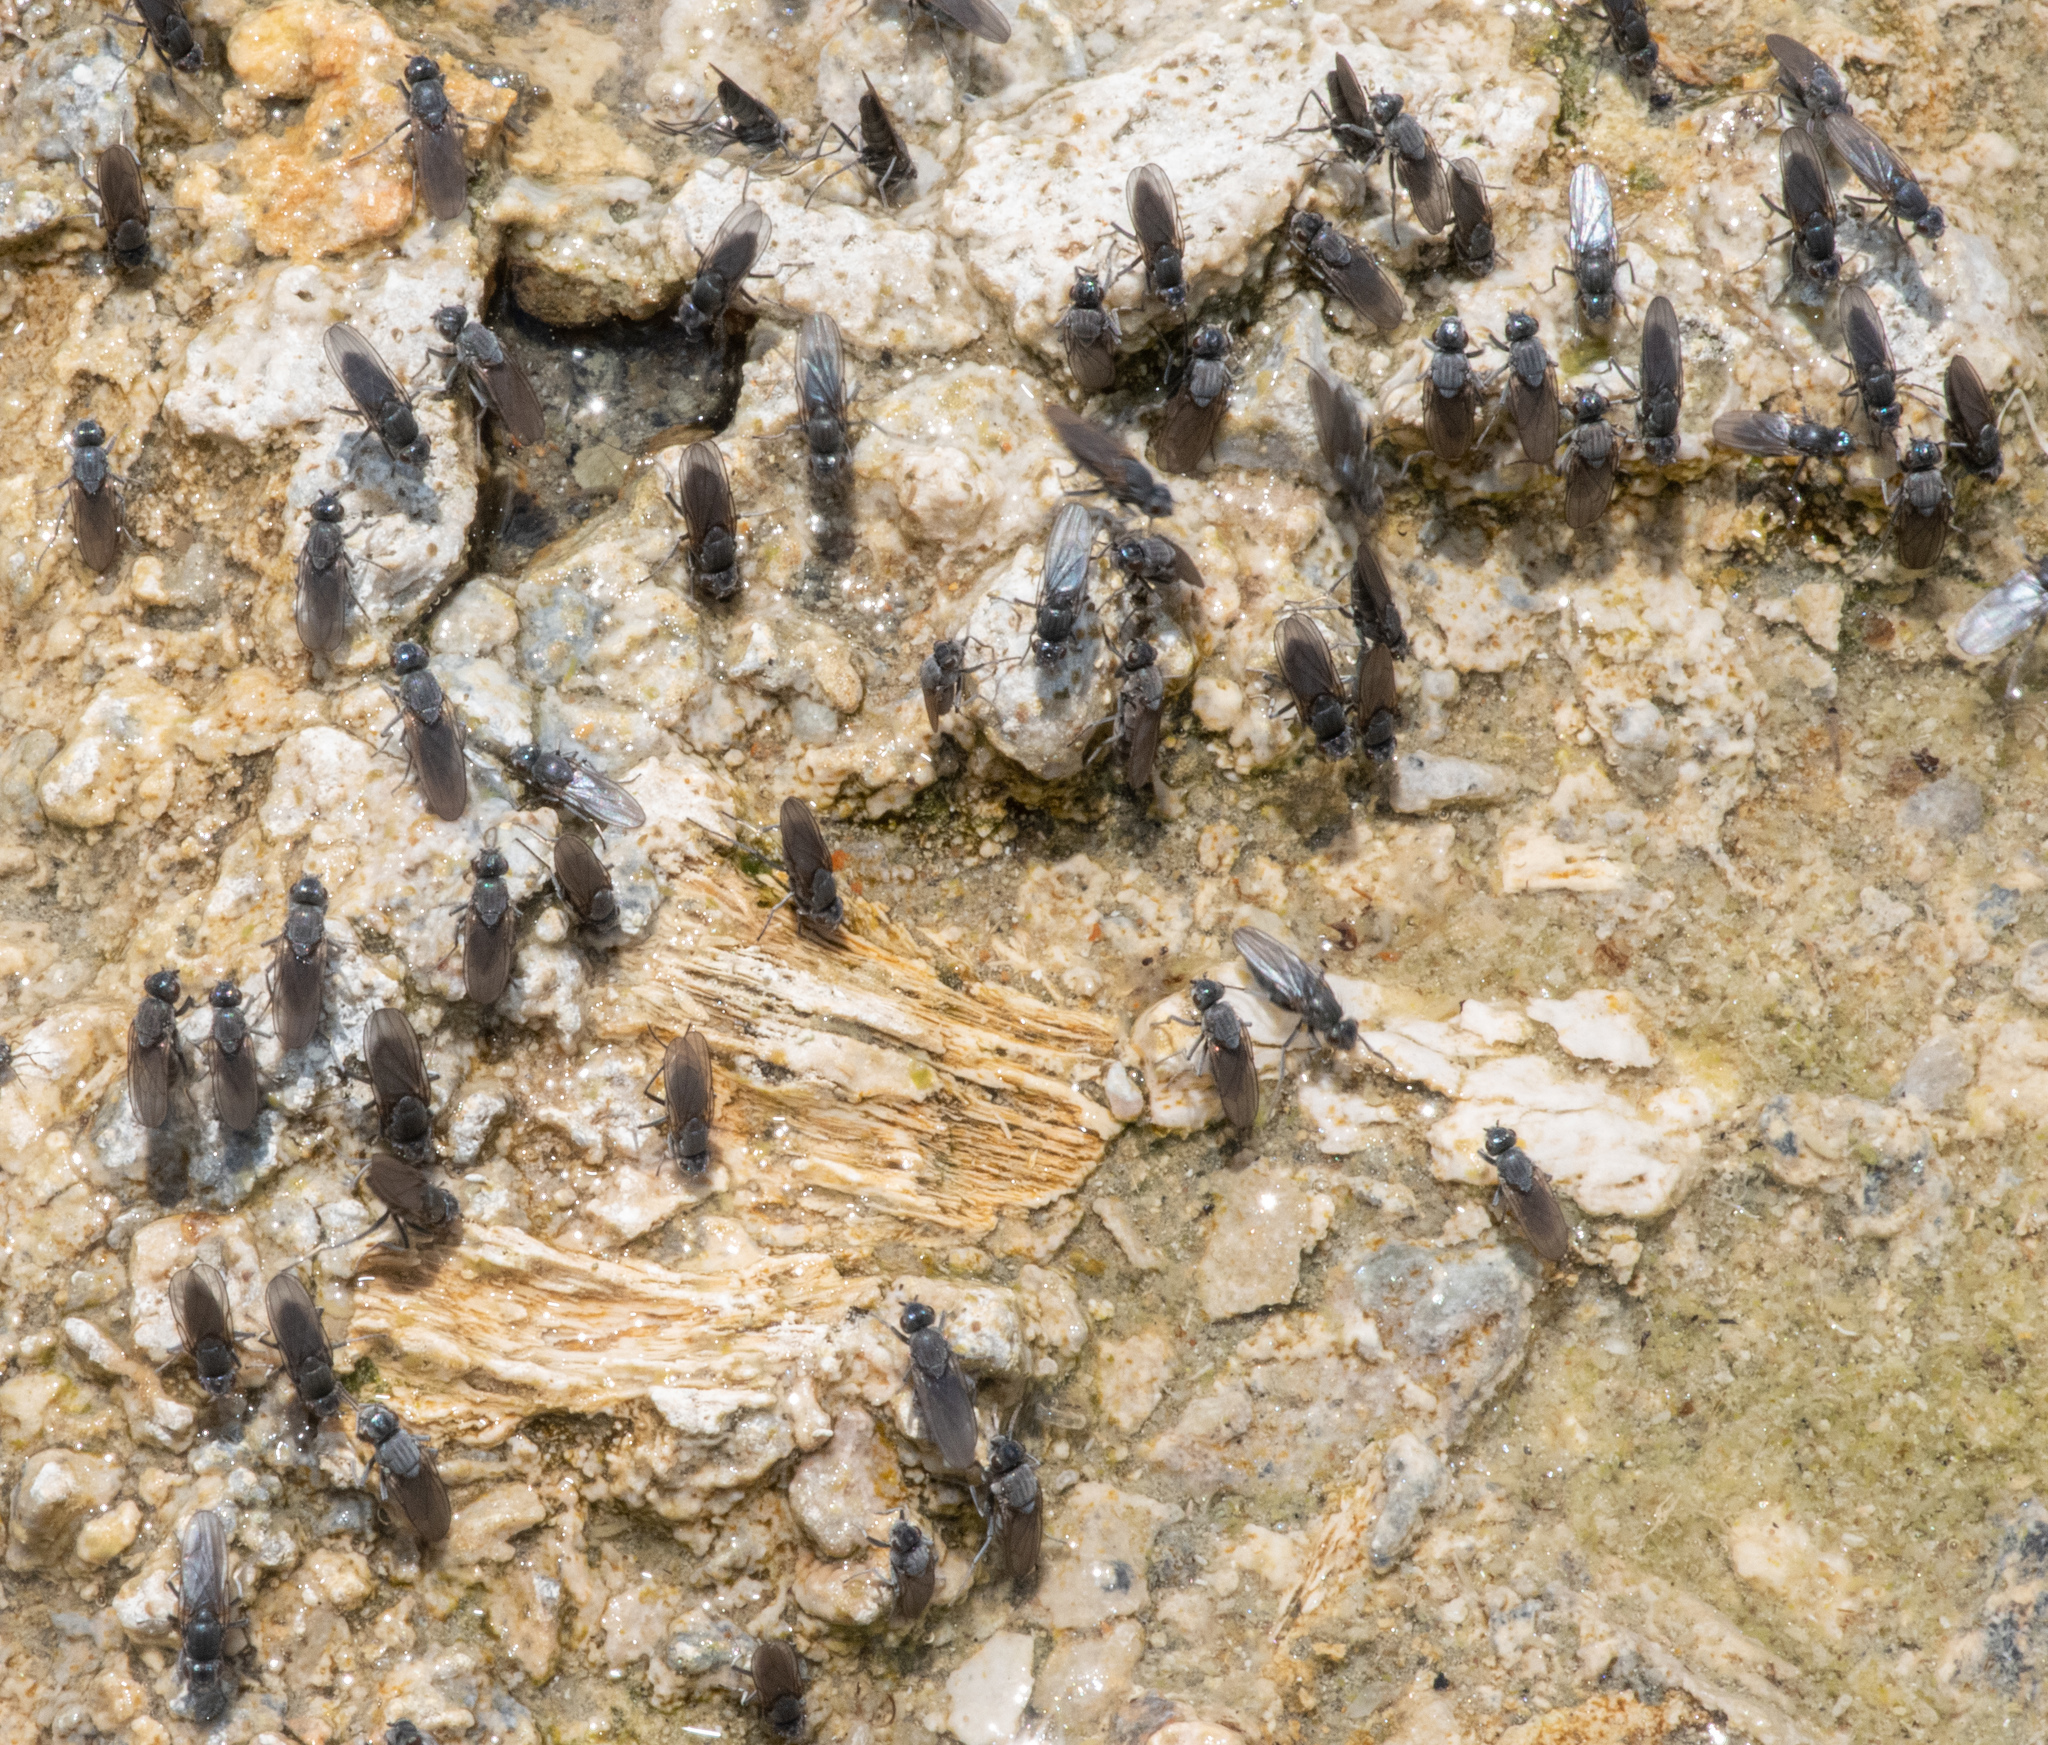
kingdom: Animalia
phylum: Arthropoda
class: Insecta
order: Diptera
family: Ephydridae
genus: Cirrula
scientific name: Cirrula hians
